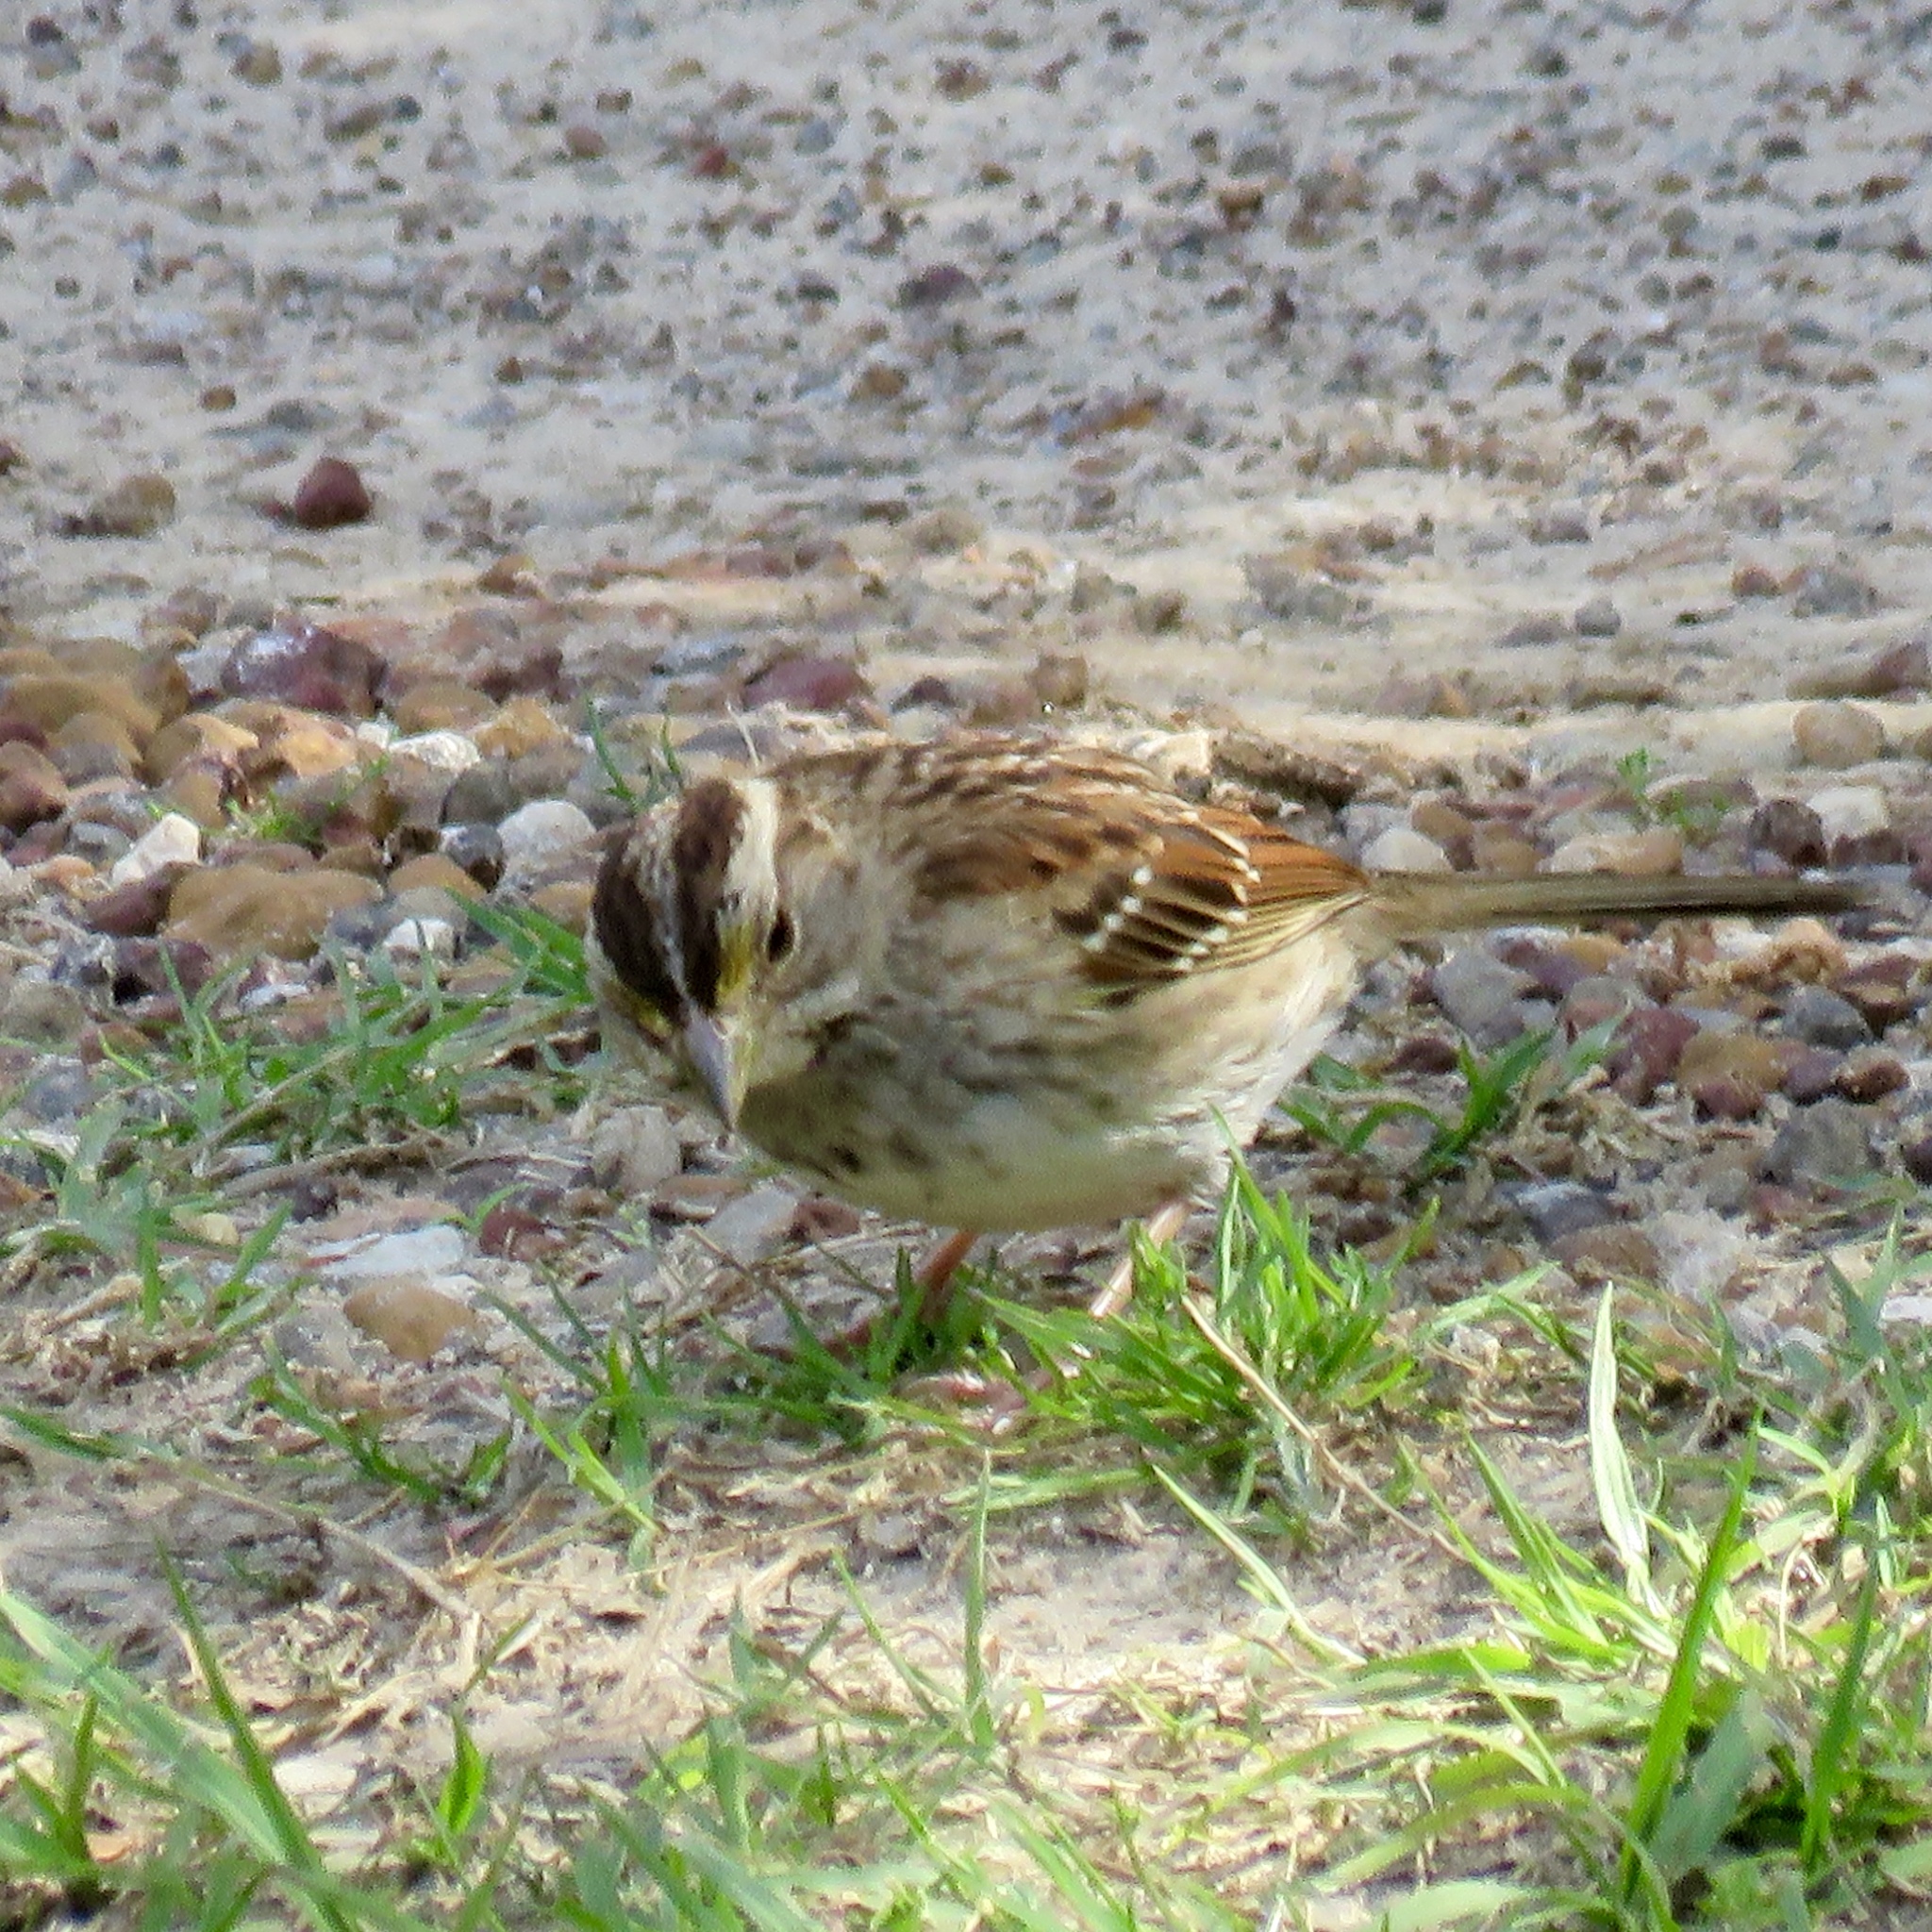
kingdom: Animalia
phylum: Chordata
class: Aves
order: Passeriformes
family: Passerellidae
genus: Zonotrichia
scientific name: Zonotrichia albicollis
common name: White-throated sparrow
